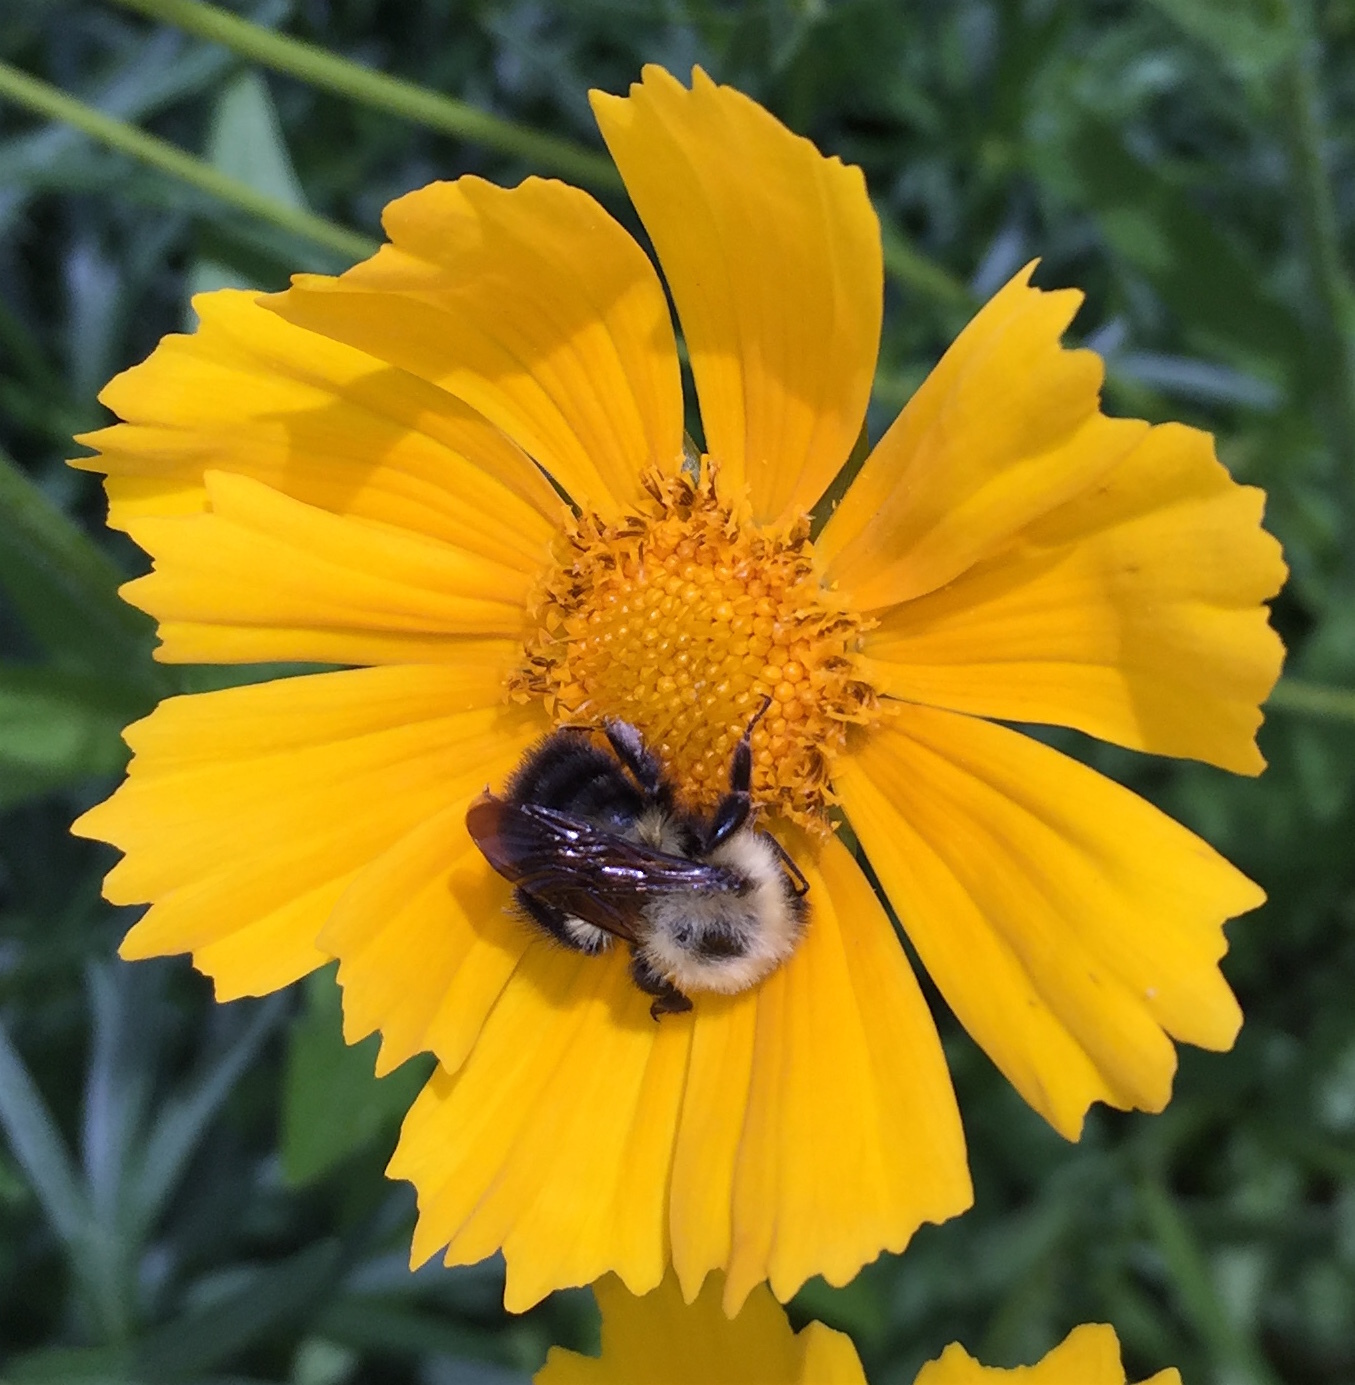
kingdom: Animalia
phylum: Arthropoda
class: Insecta
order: Hymenoptera
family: Apidae
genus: Bombus
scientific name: Bombus bimaculatus
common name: Two-spotted bumble bee
